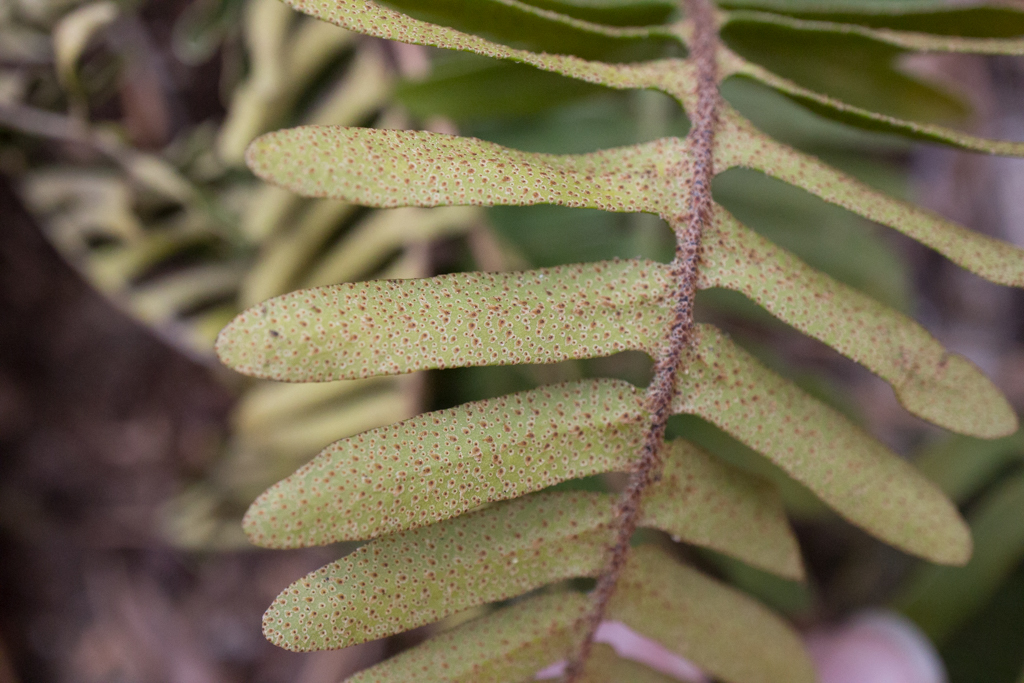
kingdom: Plantae
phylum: Tracheophyta
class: Polypodiopsida
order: Polypodiales
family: Polypodiaceae
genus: Pleopeltis
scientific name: Pleopeltis michauxiana
